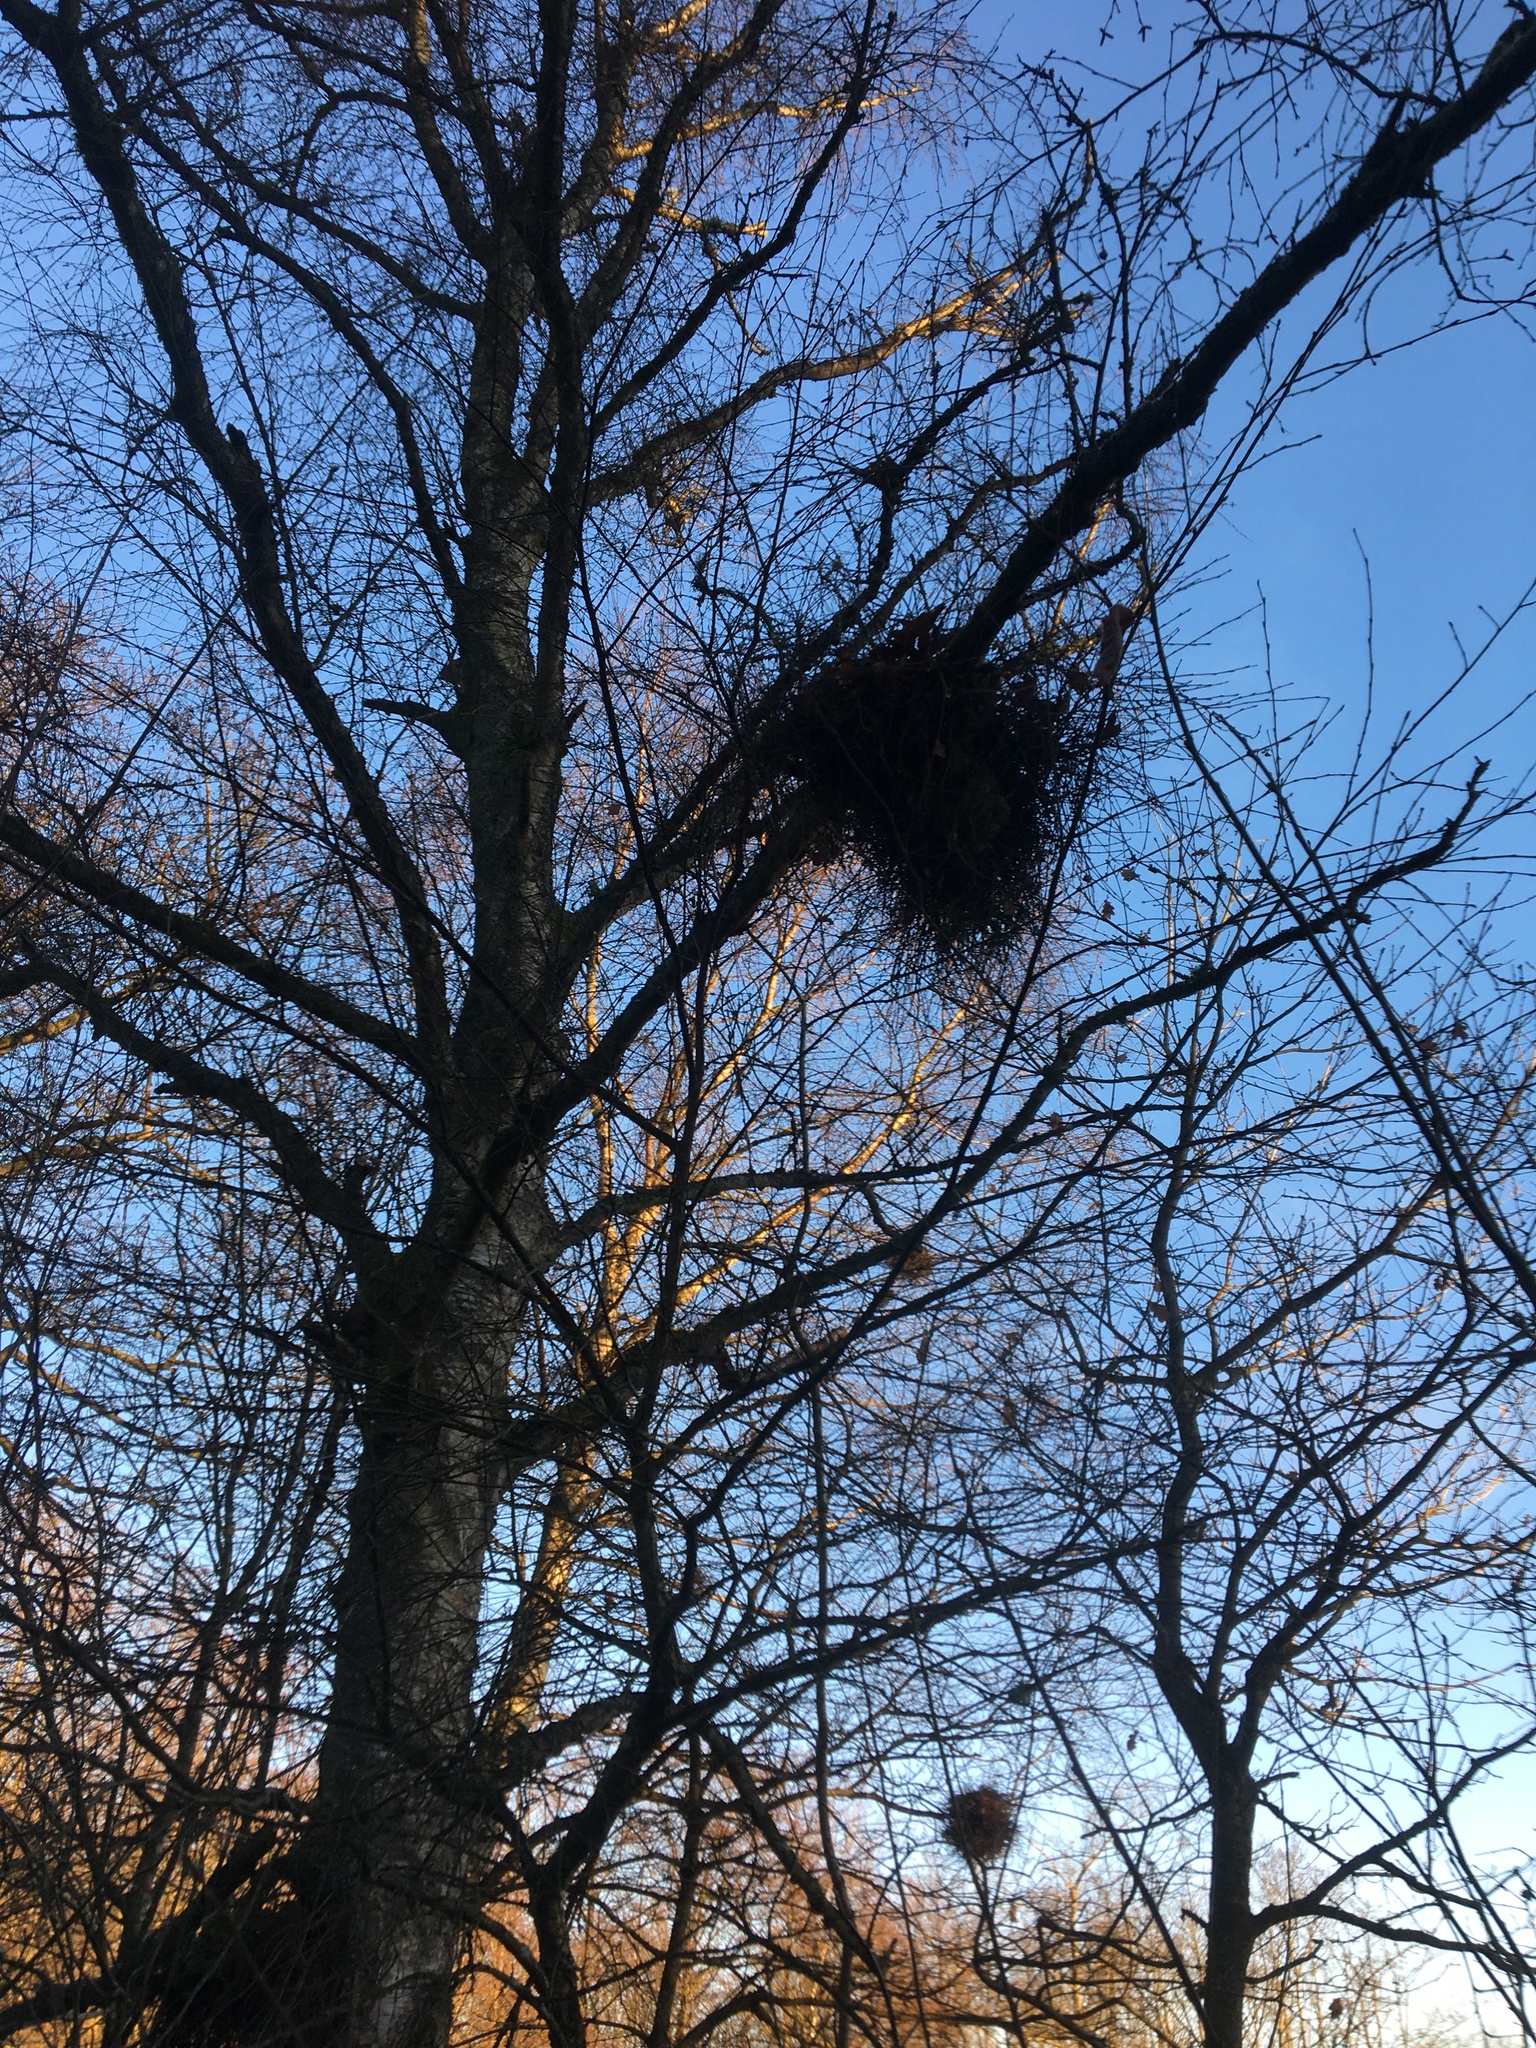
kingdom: Fungi
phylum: Ascomycota
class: Taphrinomycetes
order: Taphrinales
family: Taphrinaceae
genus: Taphrina
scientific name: Taphrina betulina
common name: Birch besom
